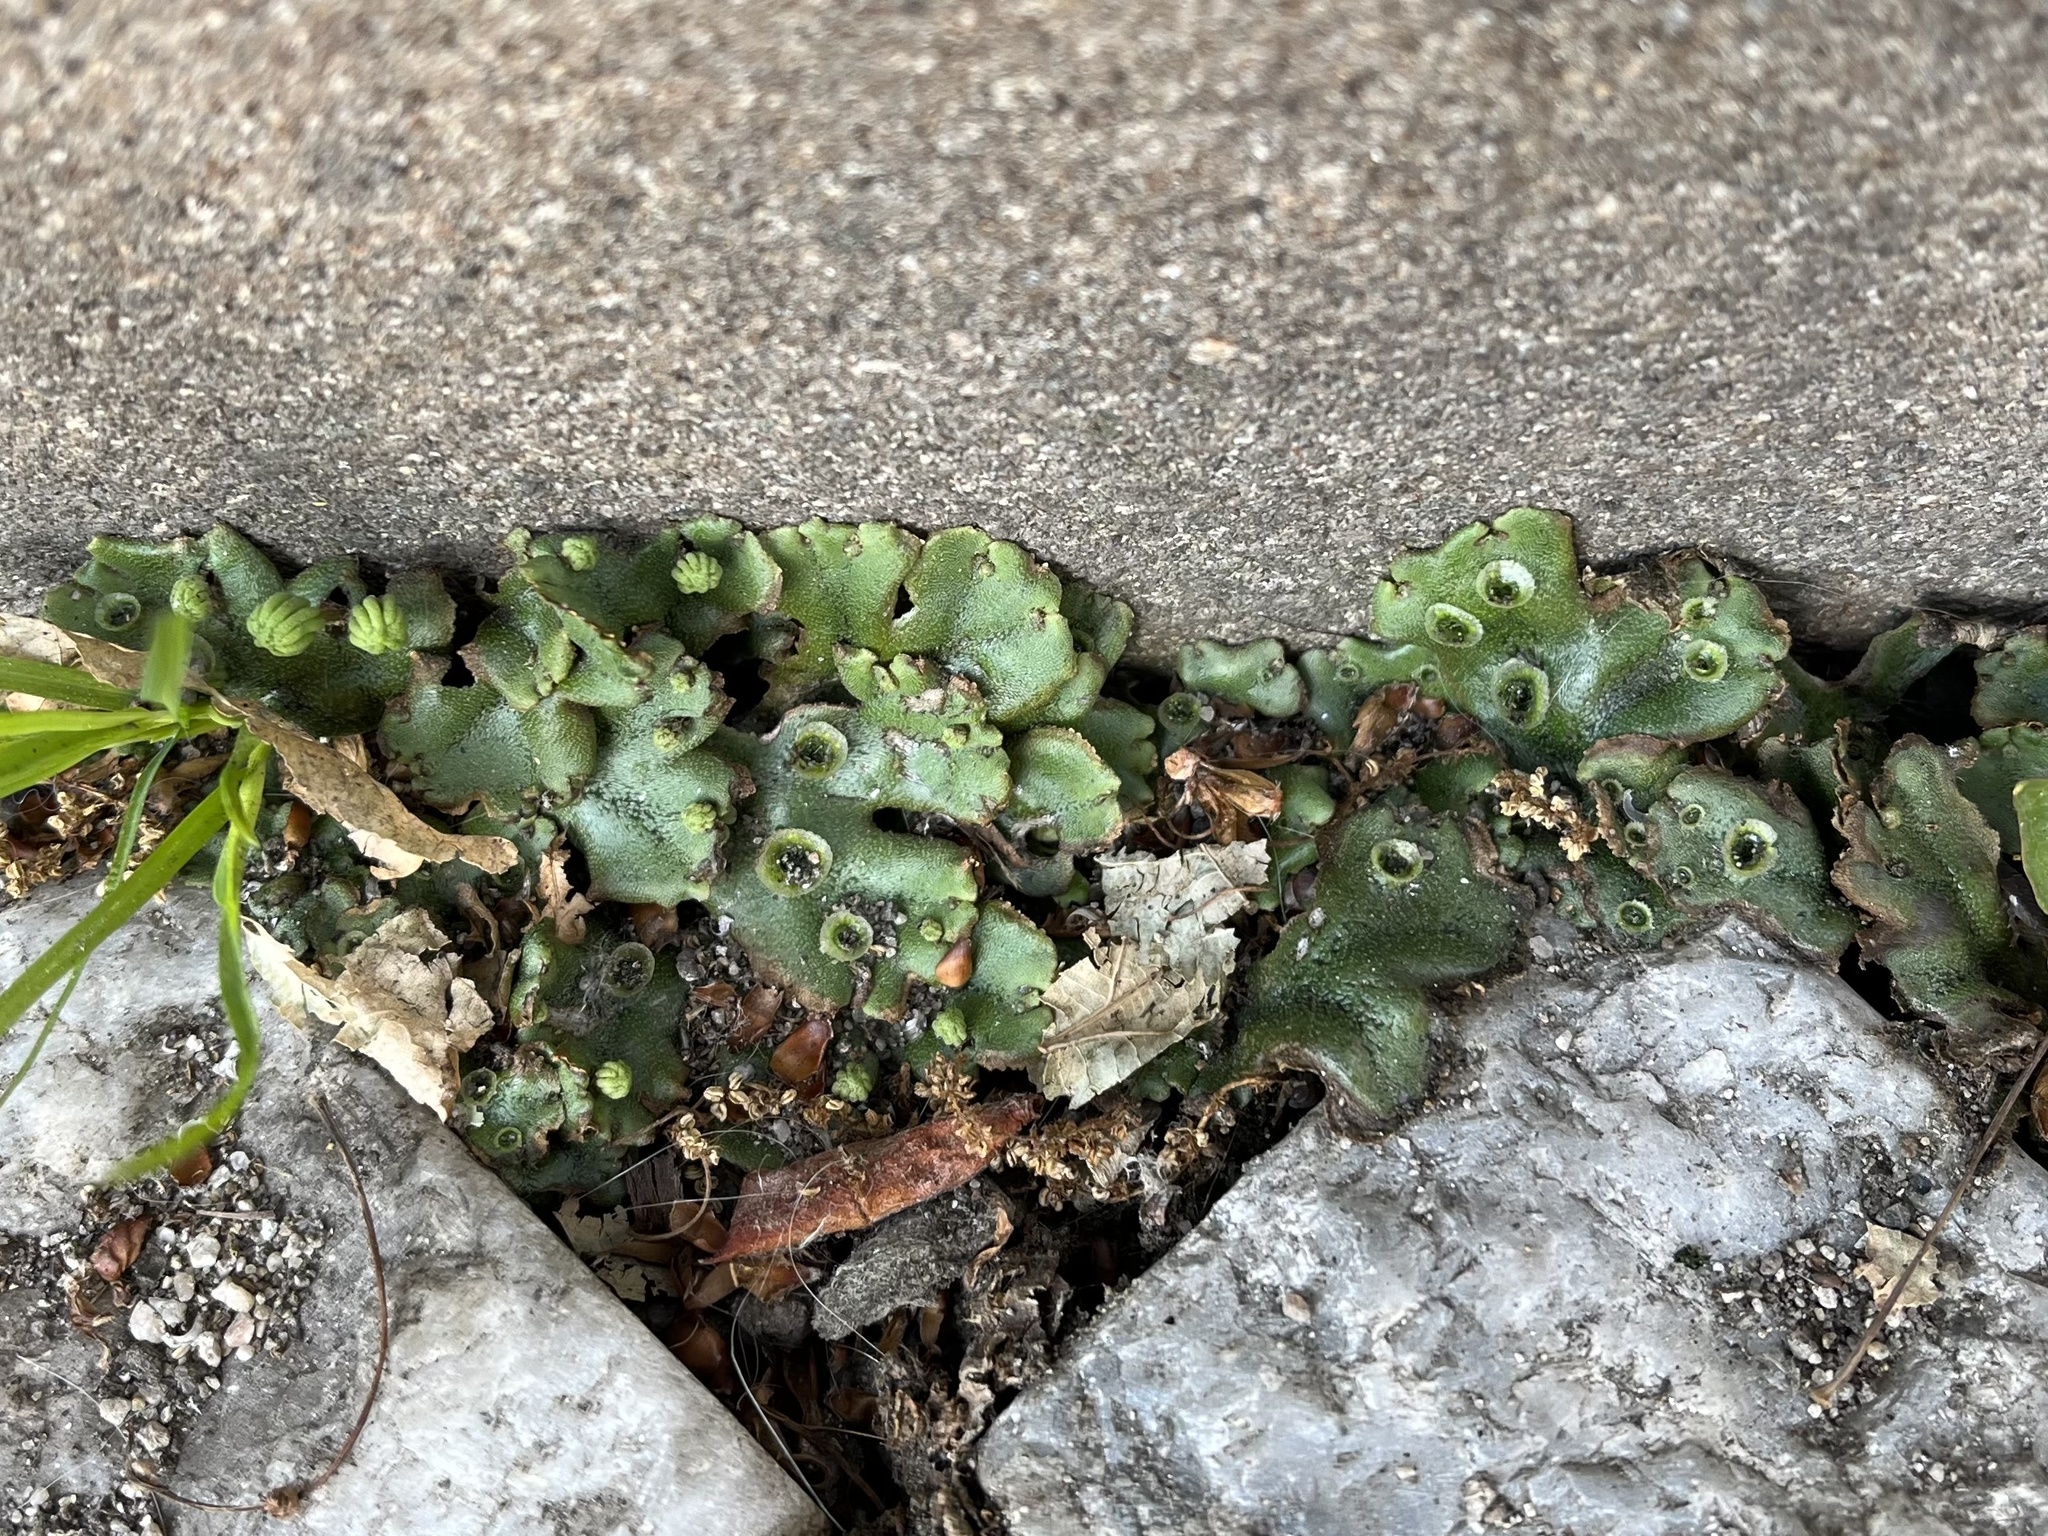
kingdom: Plantae
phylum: Marchantiophyta
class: Marchantiopsida
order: Marchantiales
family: Marchantiaceae
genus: Marchantia
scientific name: Marchantia polymorpha
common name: Common liverwort
